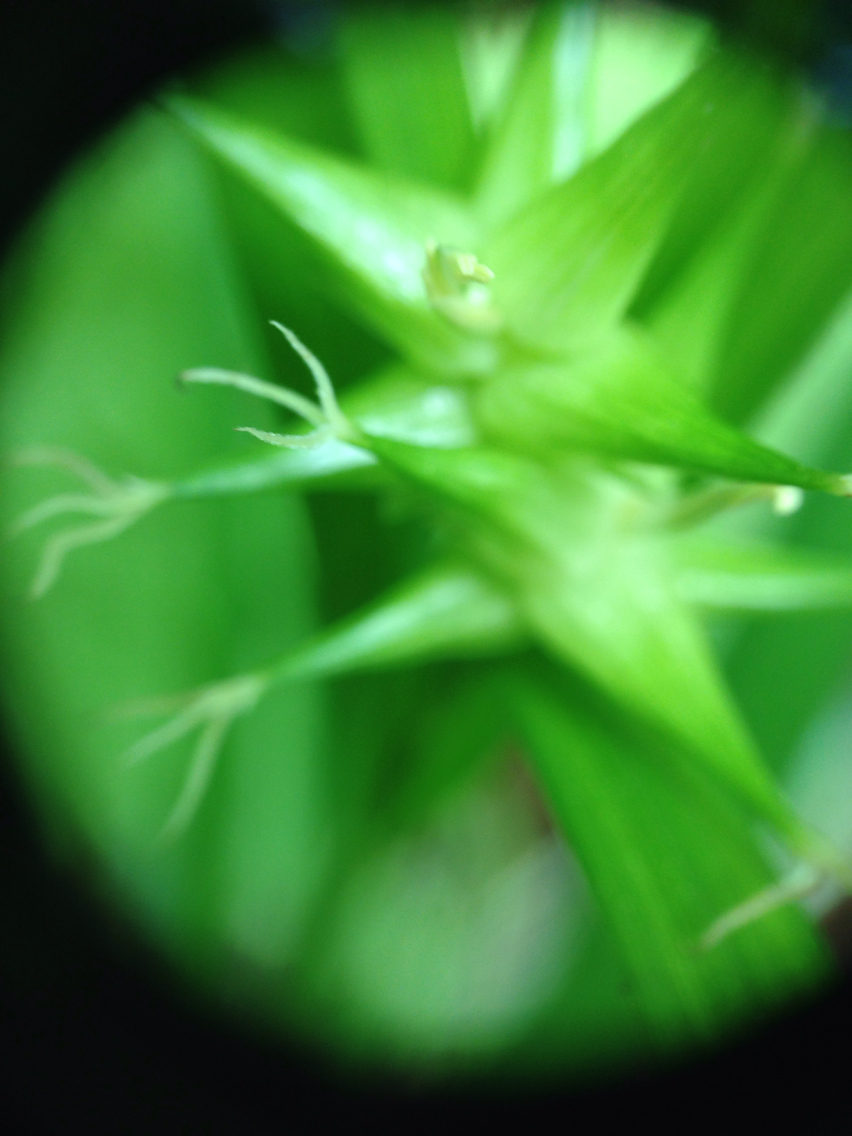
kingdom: Plantae
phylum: Tracheophyta
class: Liliopsida
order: Poales
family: Cyperaceae
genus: Carex
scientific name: Carex intumescens
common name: Greater bladder sedge
